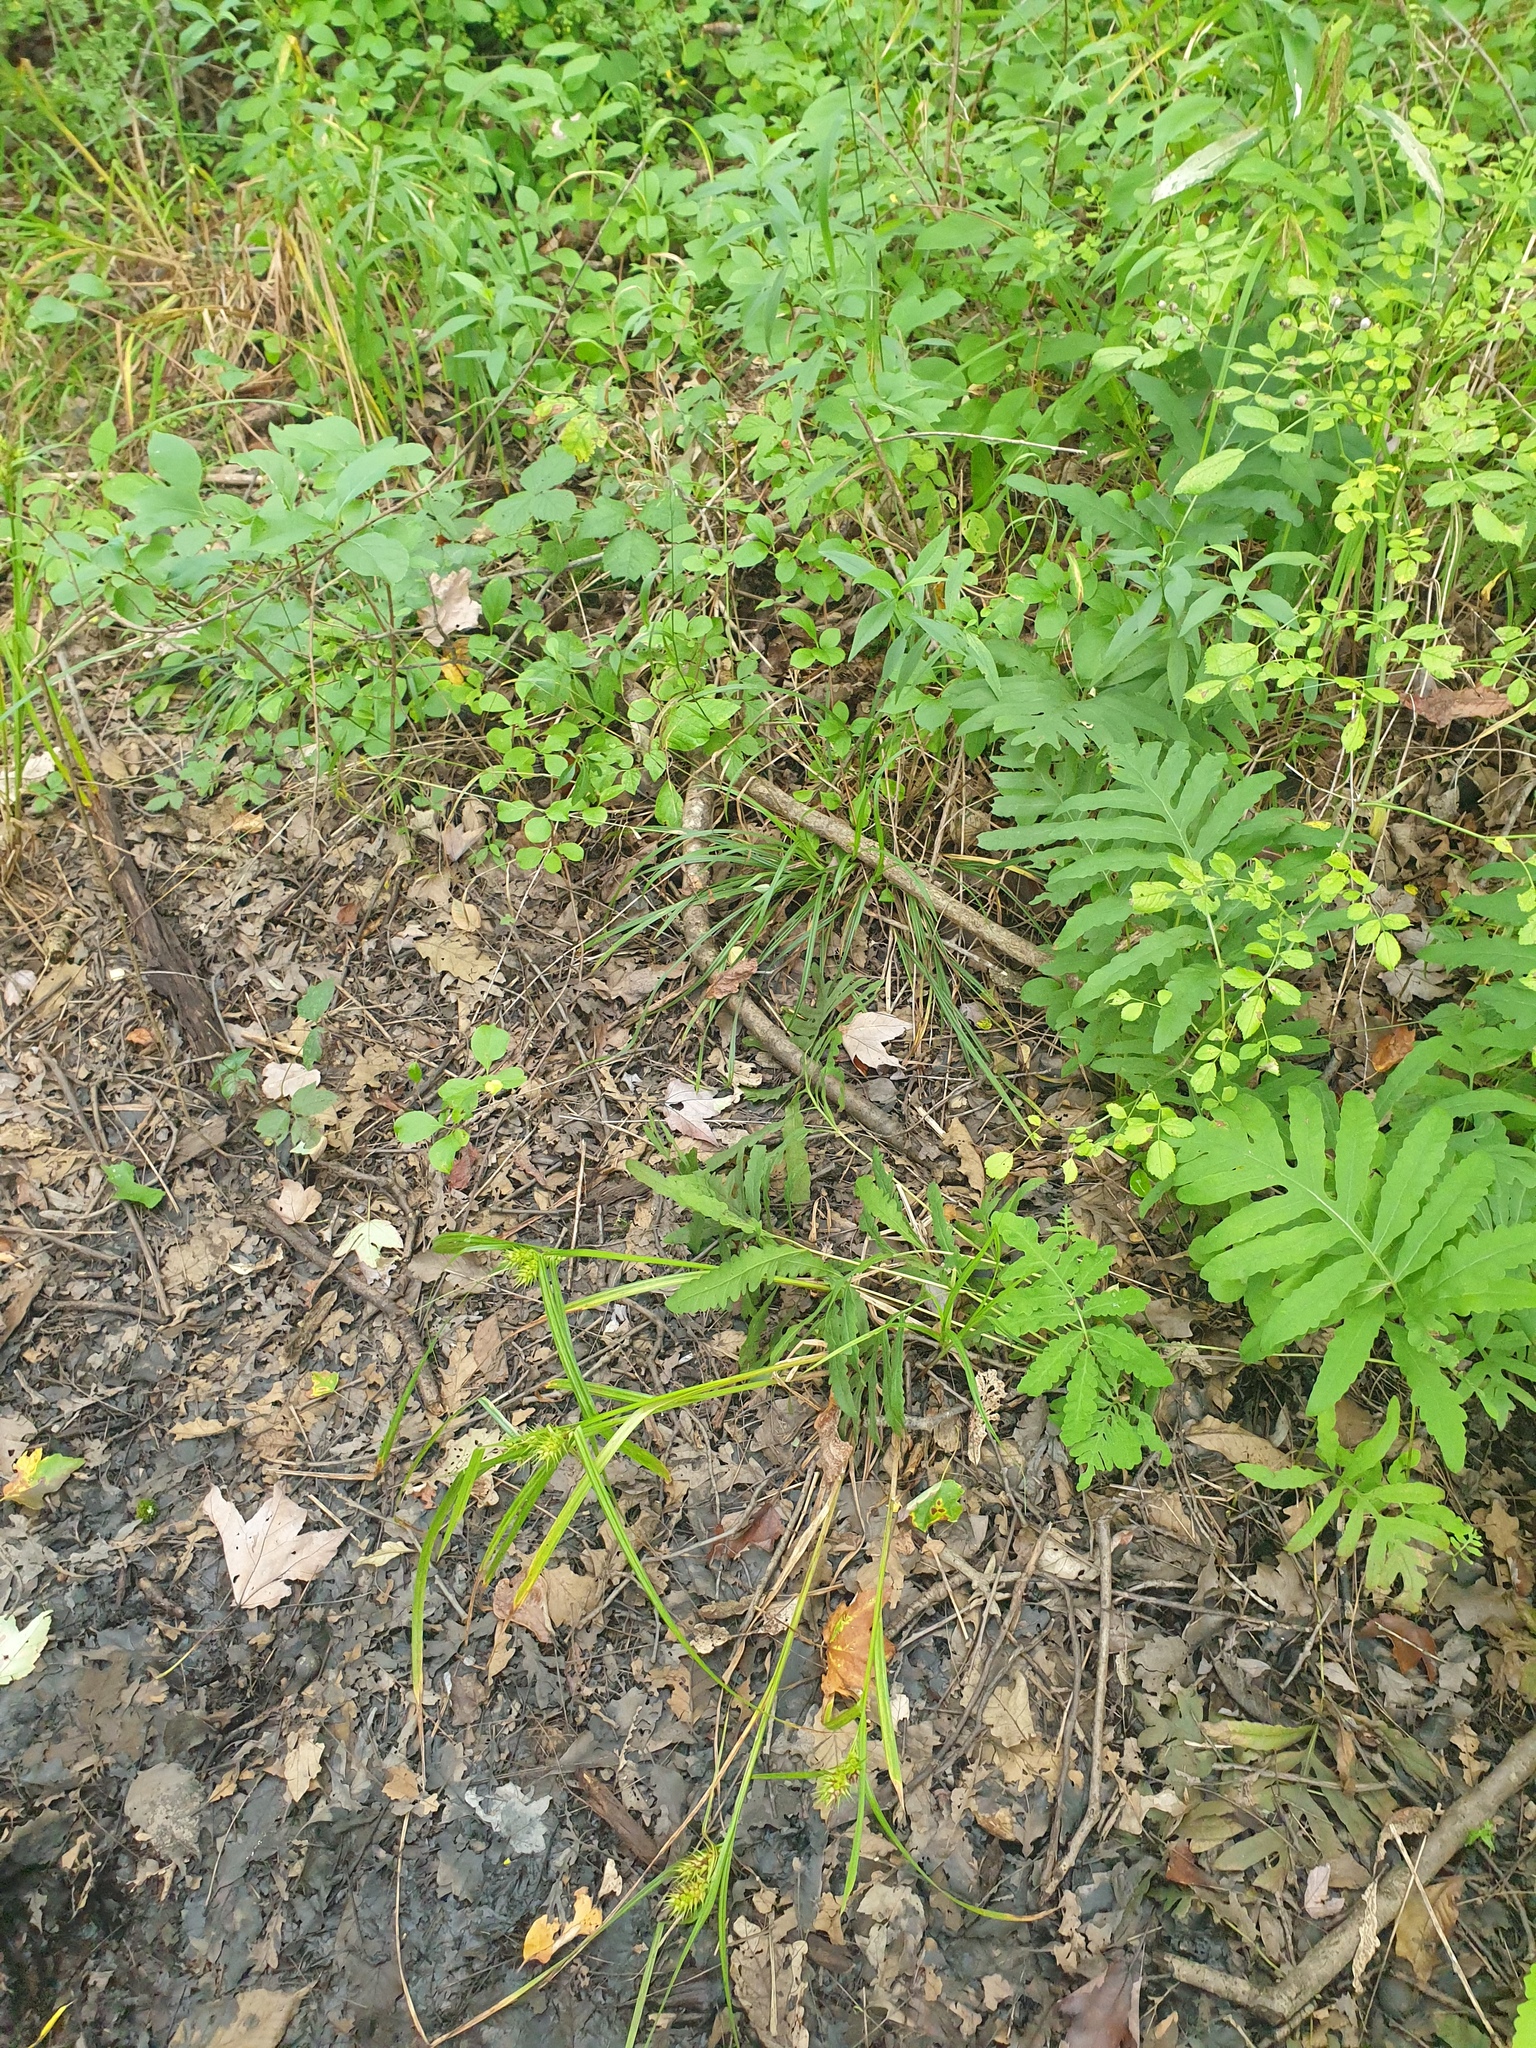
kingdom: Plantae
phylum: Tracheophyta
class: Liliopsida
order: Poales
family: Cyperaceae
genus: Carex
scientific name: Carex lupulina
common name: Hop sedge
